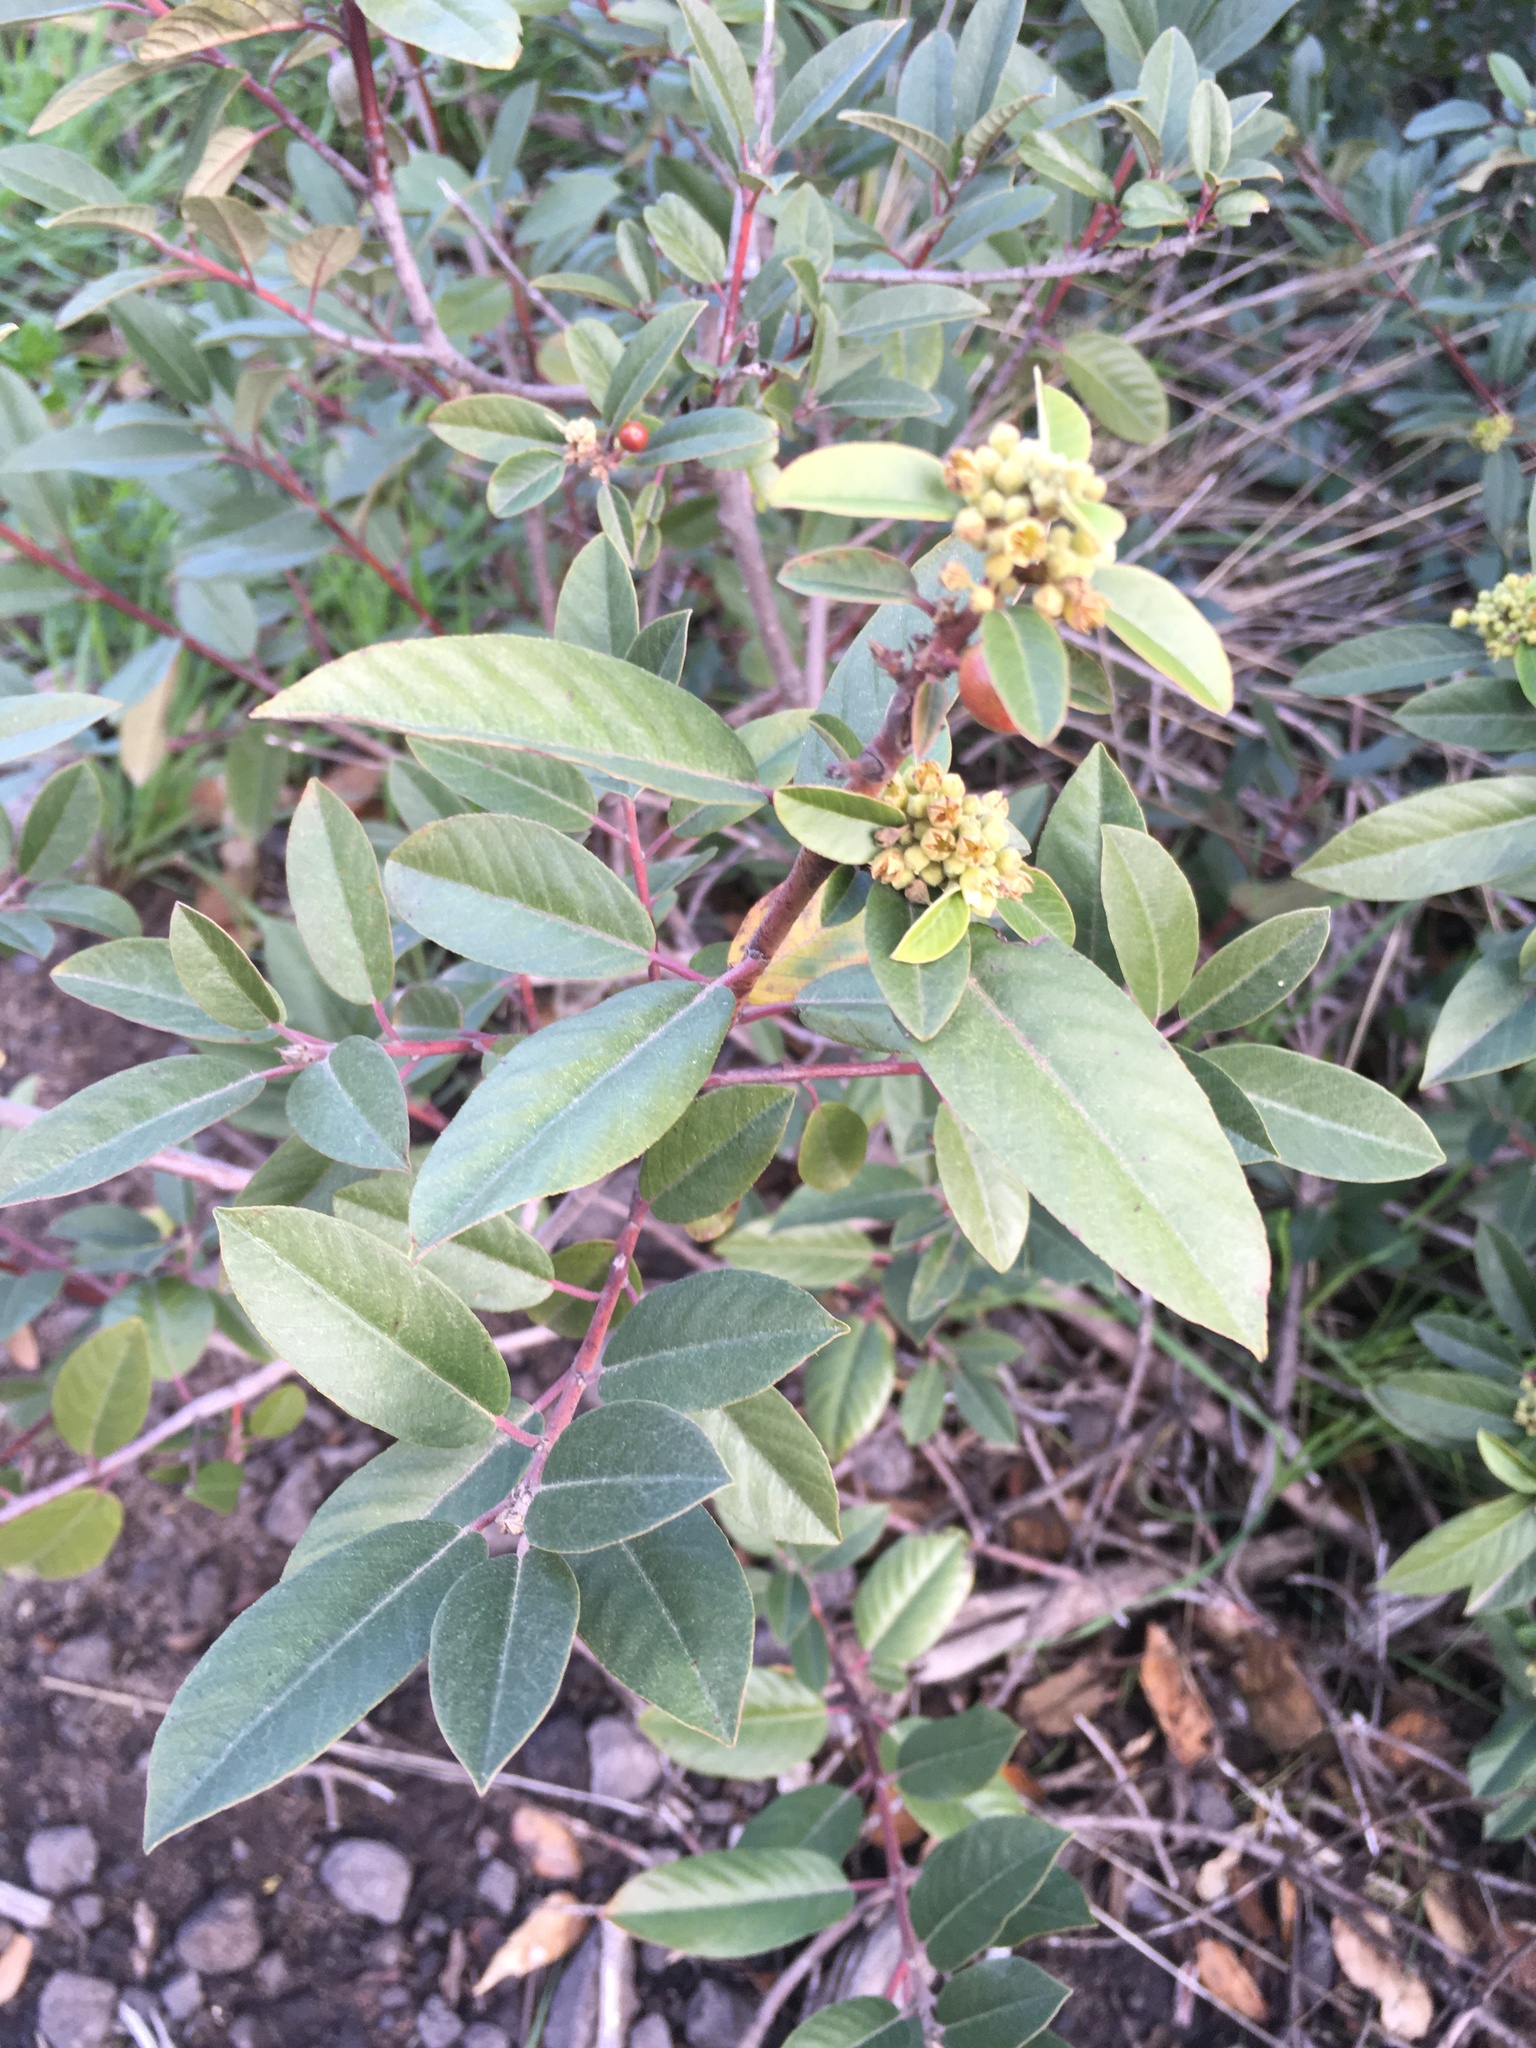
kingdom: Plantae
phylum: Tracheophyta
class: Magnoliopsida
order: Rosales
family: Rhamnaceae
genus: Frangula
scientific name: Frangula californica
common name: California buckthorn
